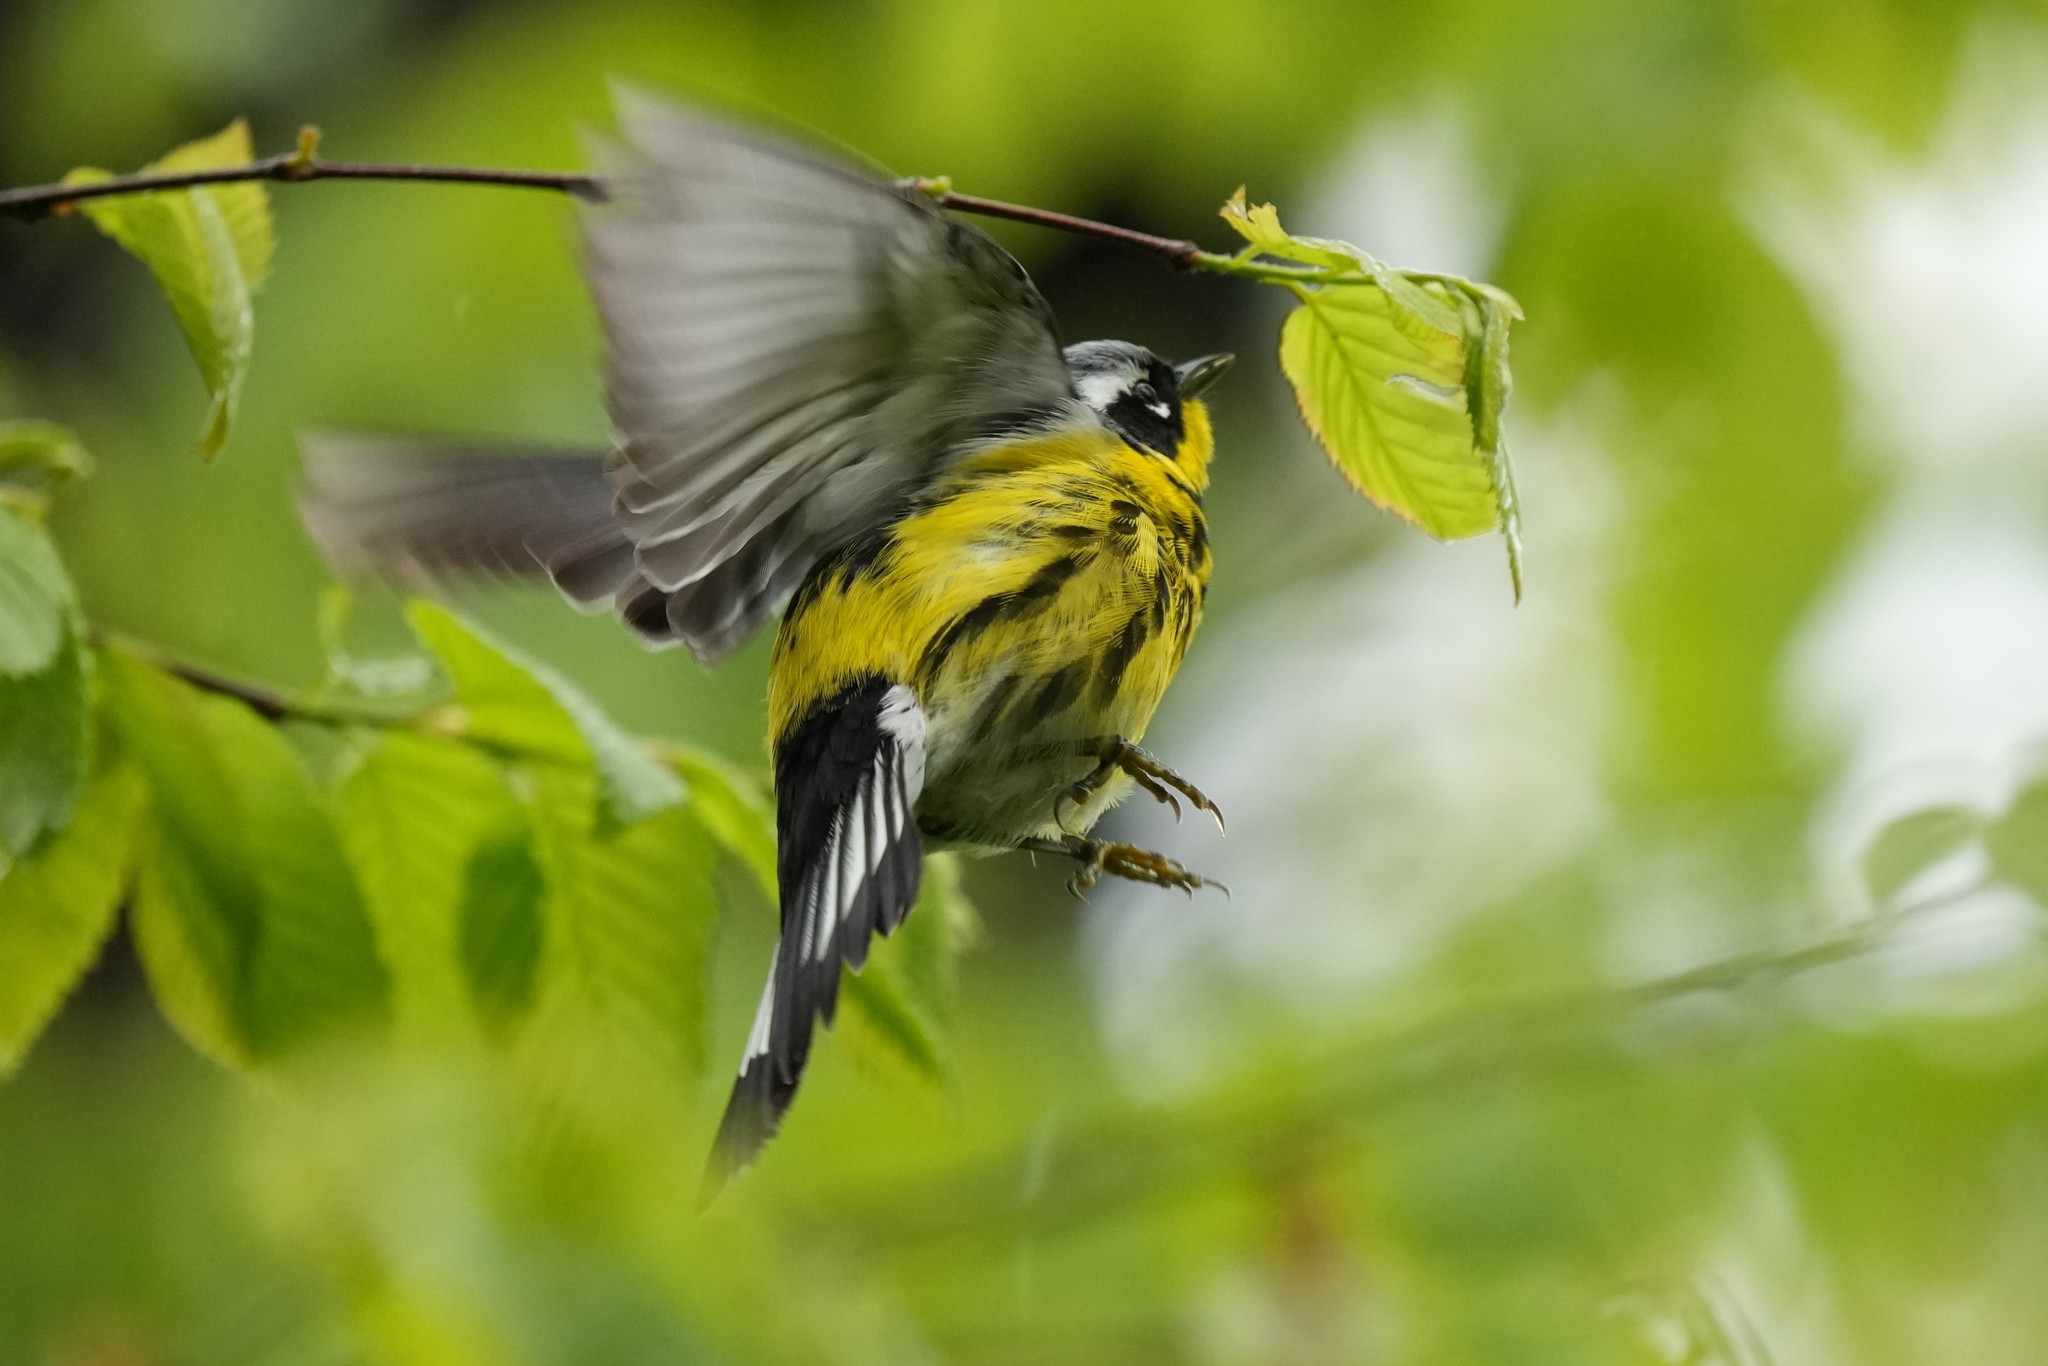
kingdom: Animalia
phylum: Chordata
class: Aves
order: Passeriformes
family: Parulidae
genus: Setophaga
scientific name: Setophaga magnolia
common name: Magnolia warbler
